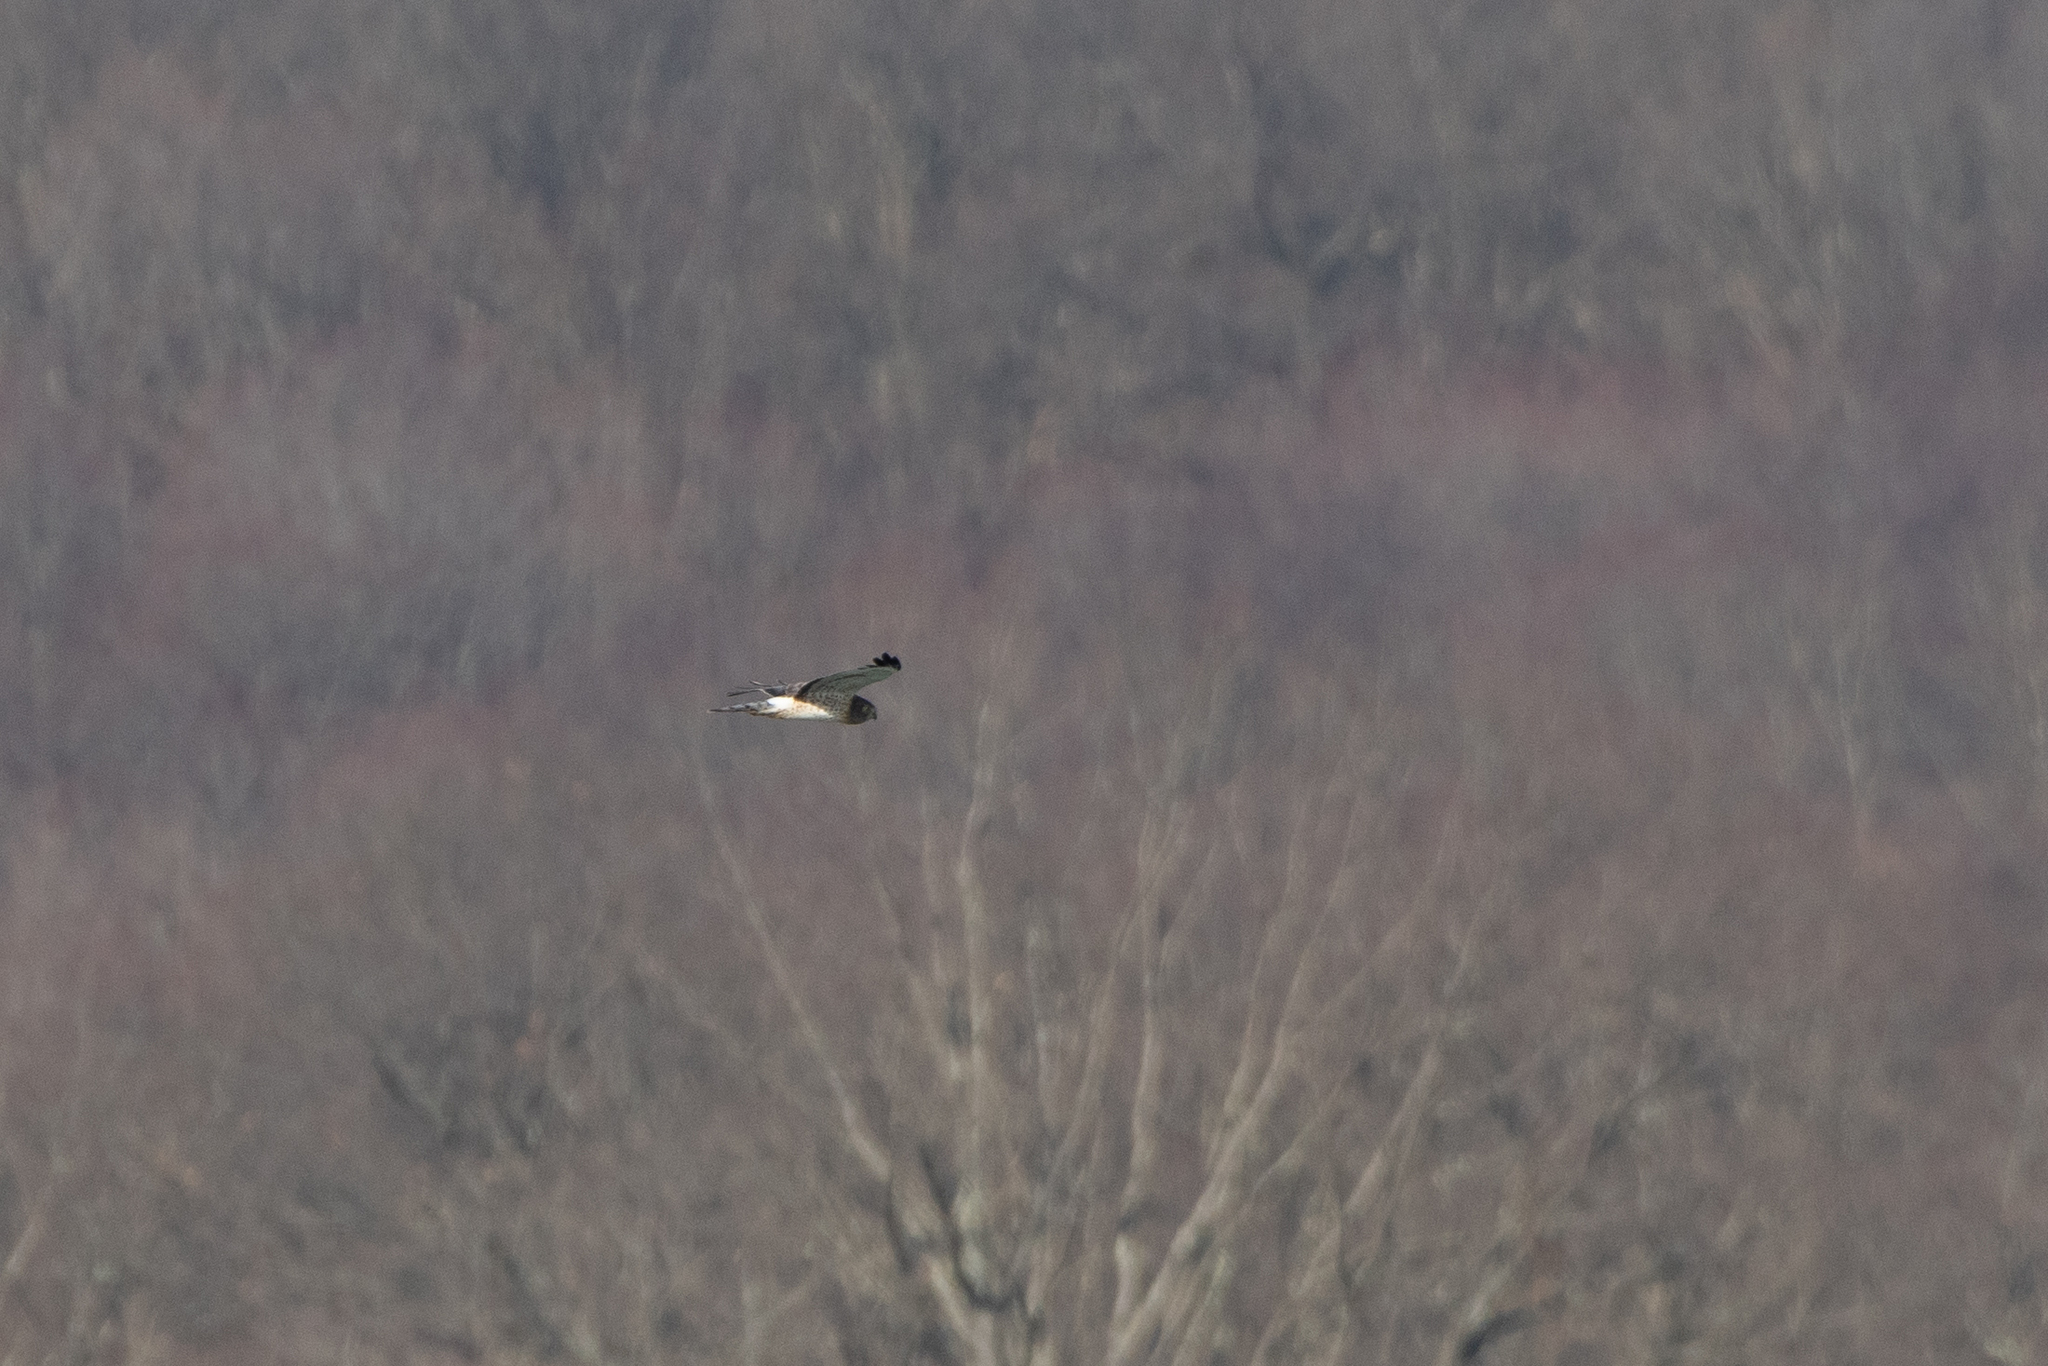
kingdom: Animalia
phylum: Chordata
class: Aves
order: Accipitriformes
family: Accipitridae
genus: Circus
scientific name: Circus cyaneus
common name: Hen harrier
